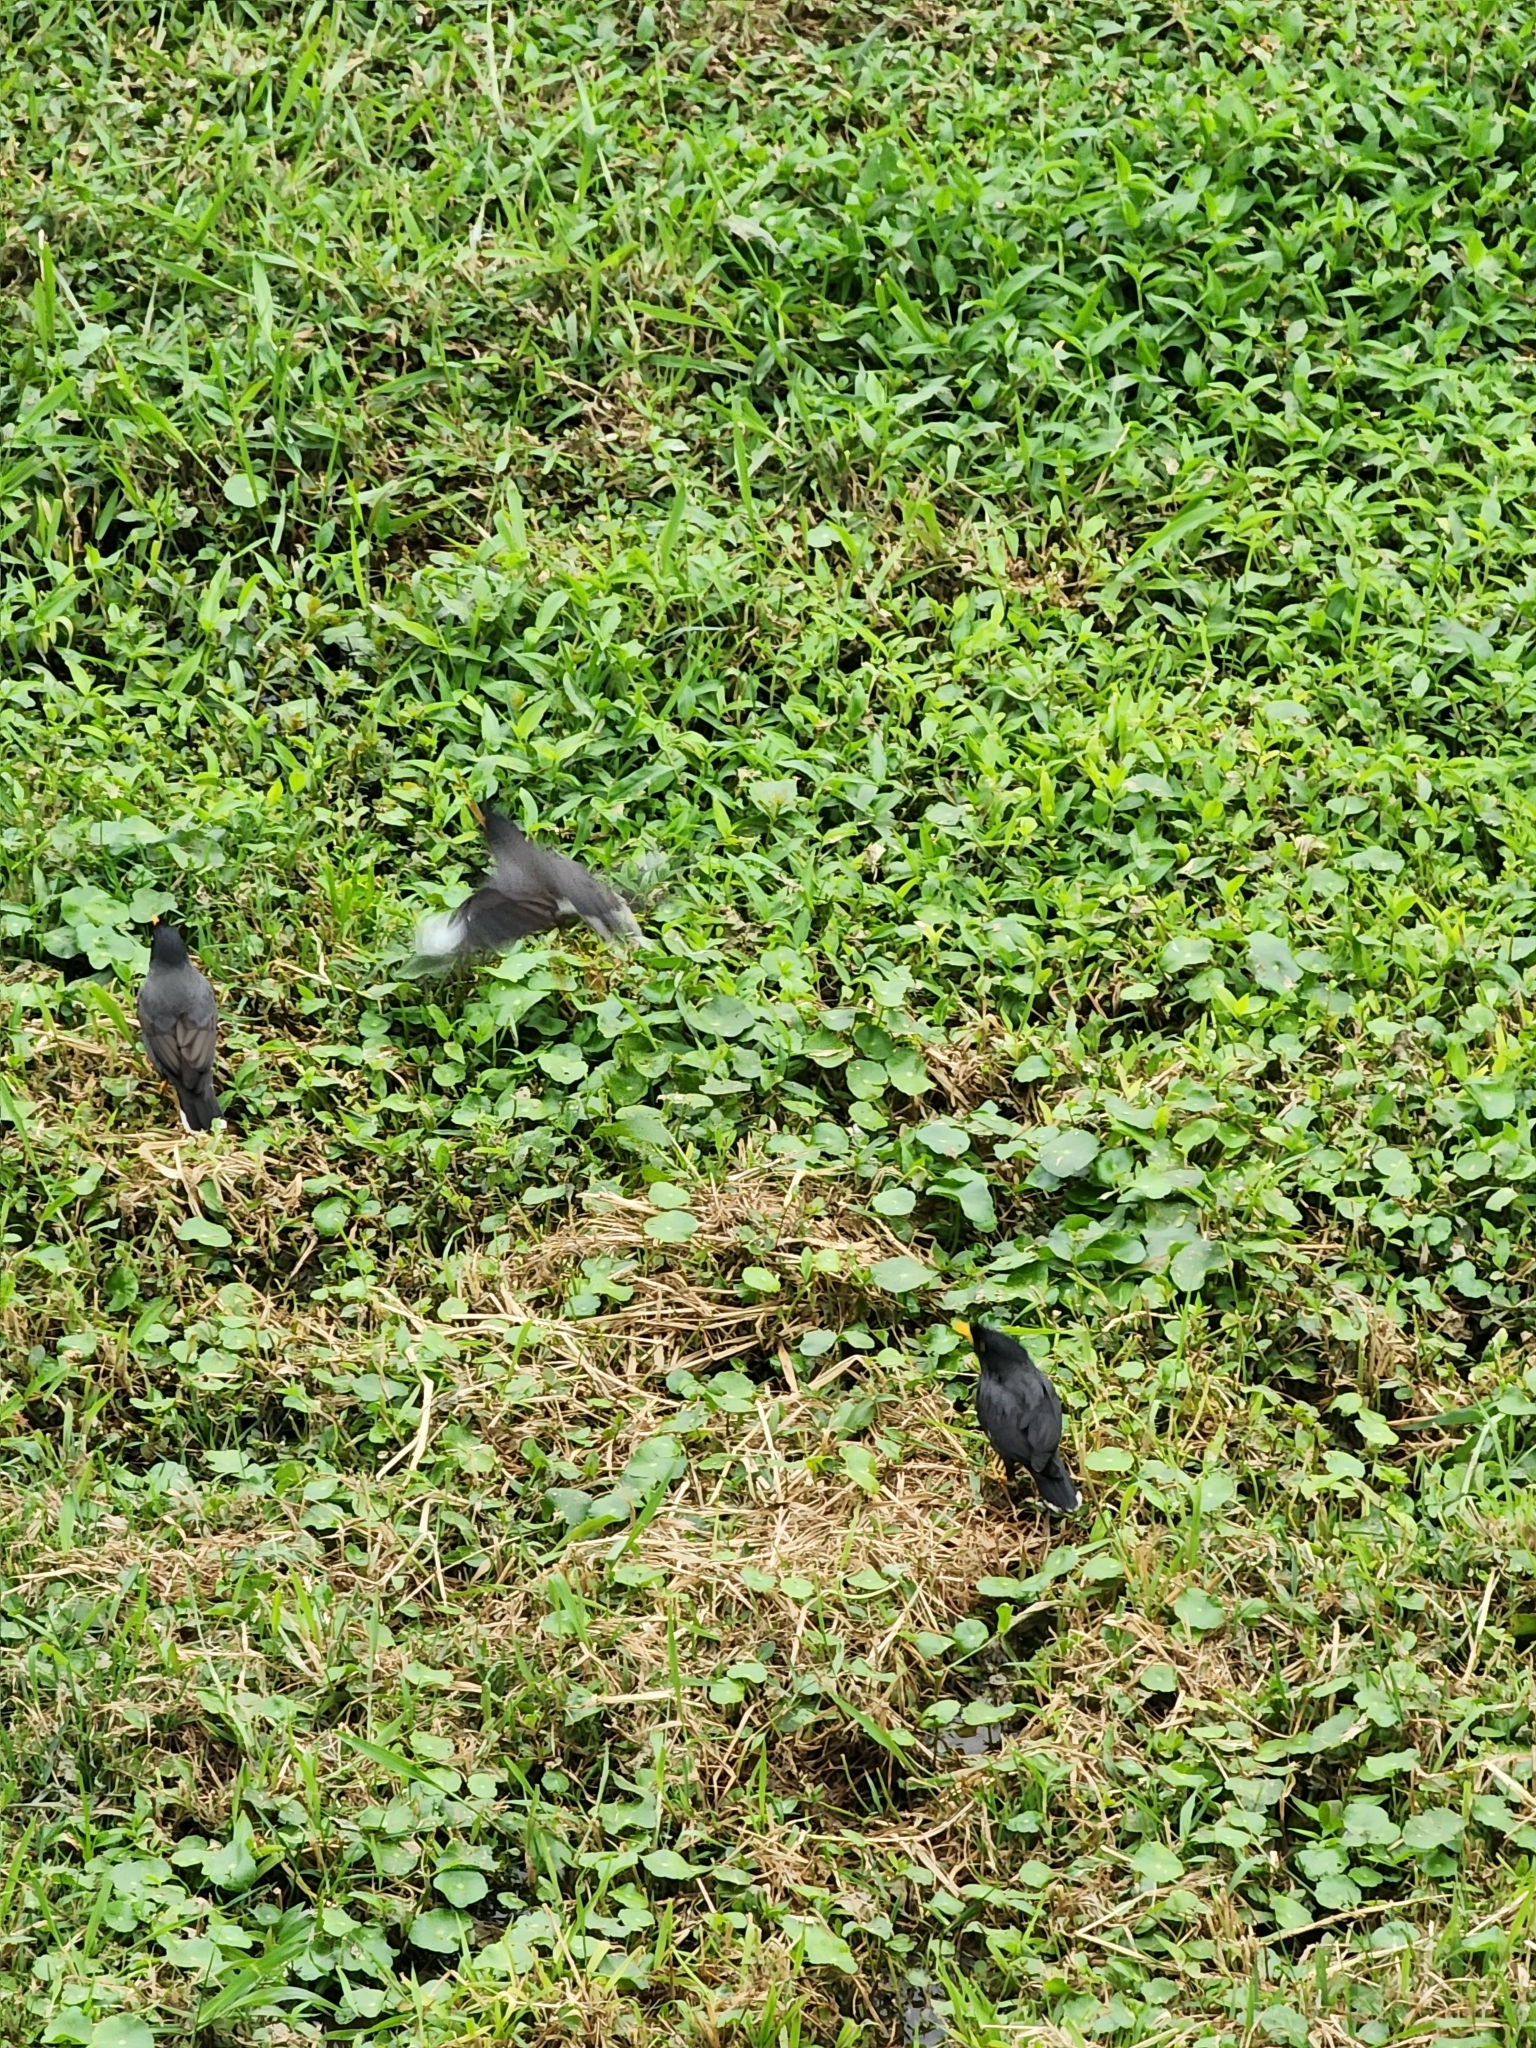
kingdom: Animalia
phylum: Chordata
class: Aves
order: Passeriformes
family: Sturnidae
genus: Acridotheres
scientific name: Acridotheres javanicus
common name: Javan myna
